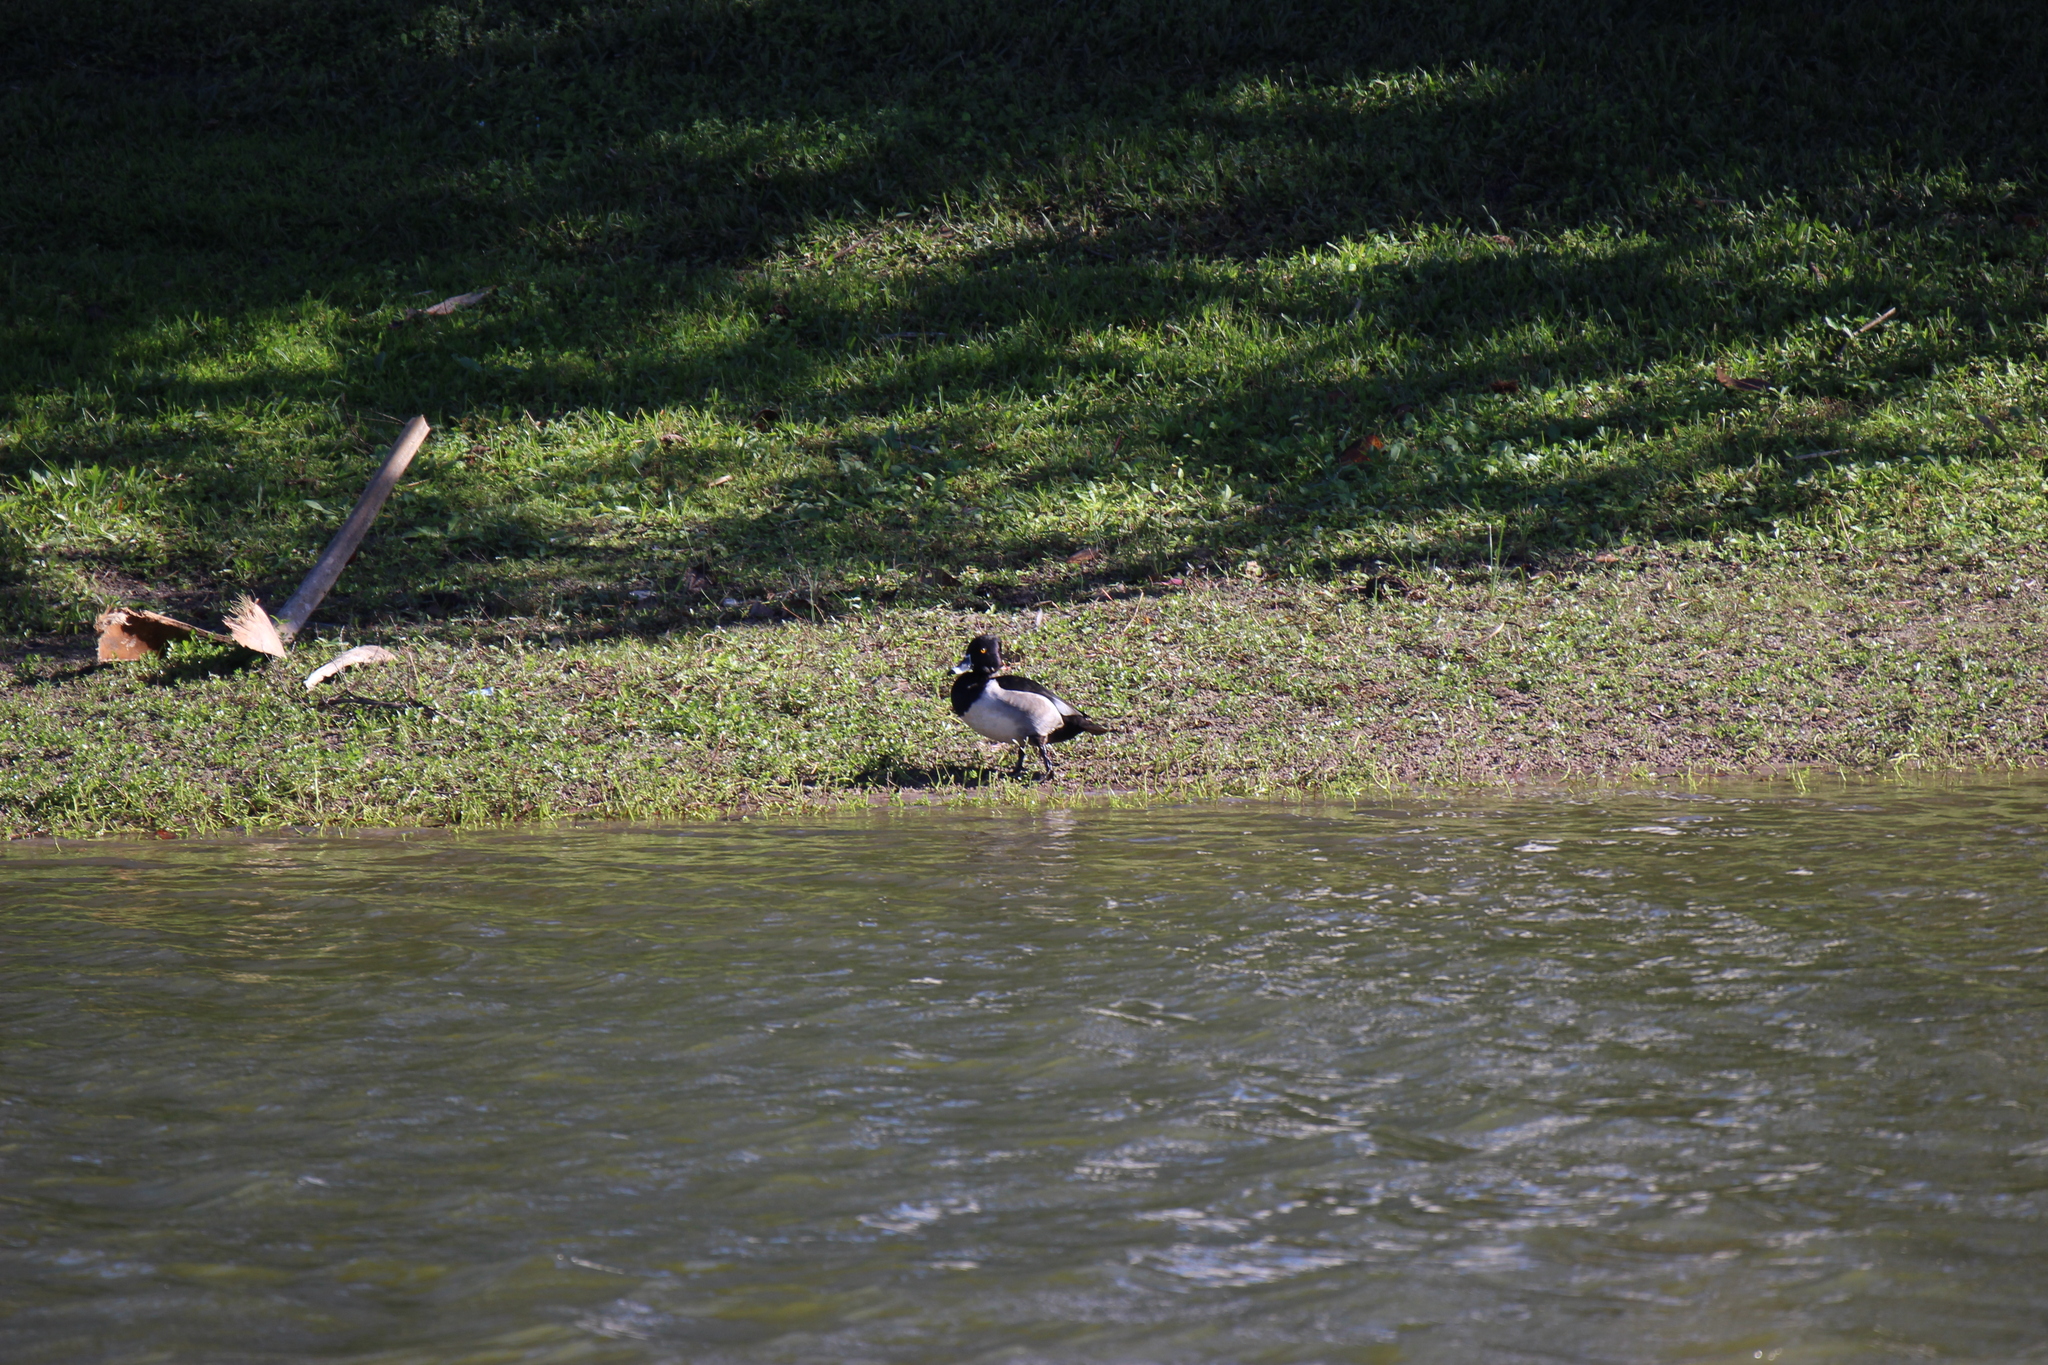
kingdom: Animalia
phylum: Chordata
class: Aves
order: Anseriformes
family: Anatidae
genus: Aythya
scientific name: Aythya collaris
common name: Ring-necked duck
